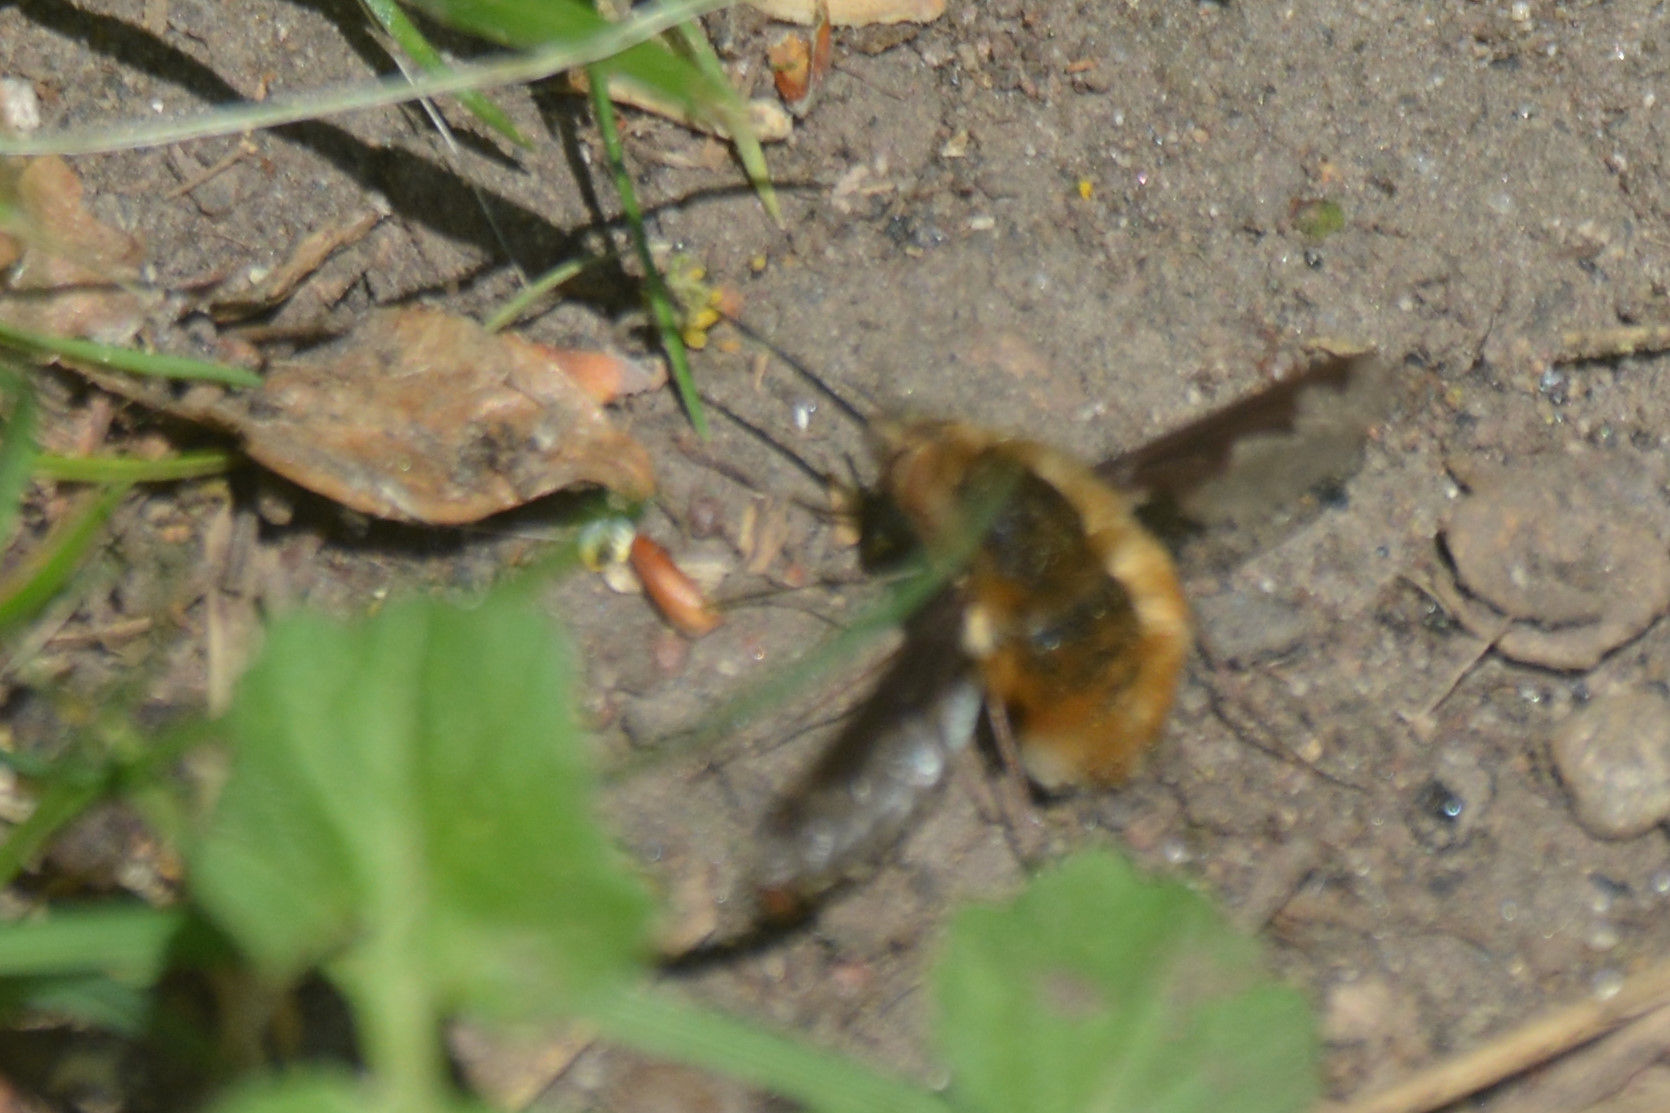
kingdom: Animalia
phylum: Arthropoda
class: Insecta
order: Diptera
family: Bombyliidae
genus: Bombylius
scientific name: Bombylius major
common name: Bee fly
